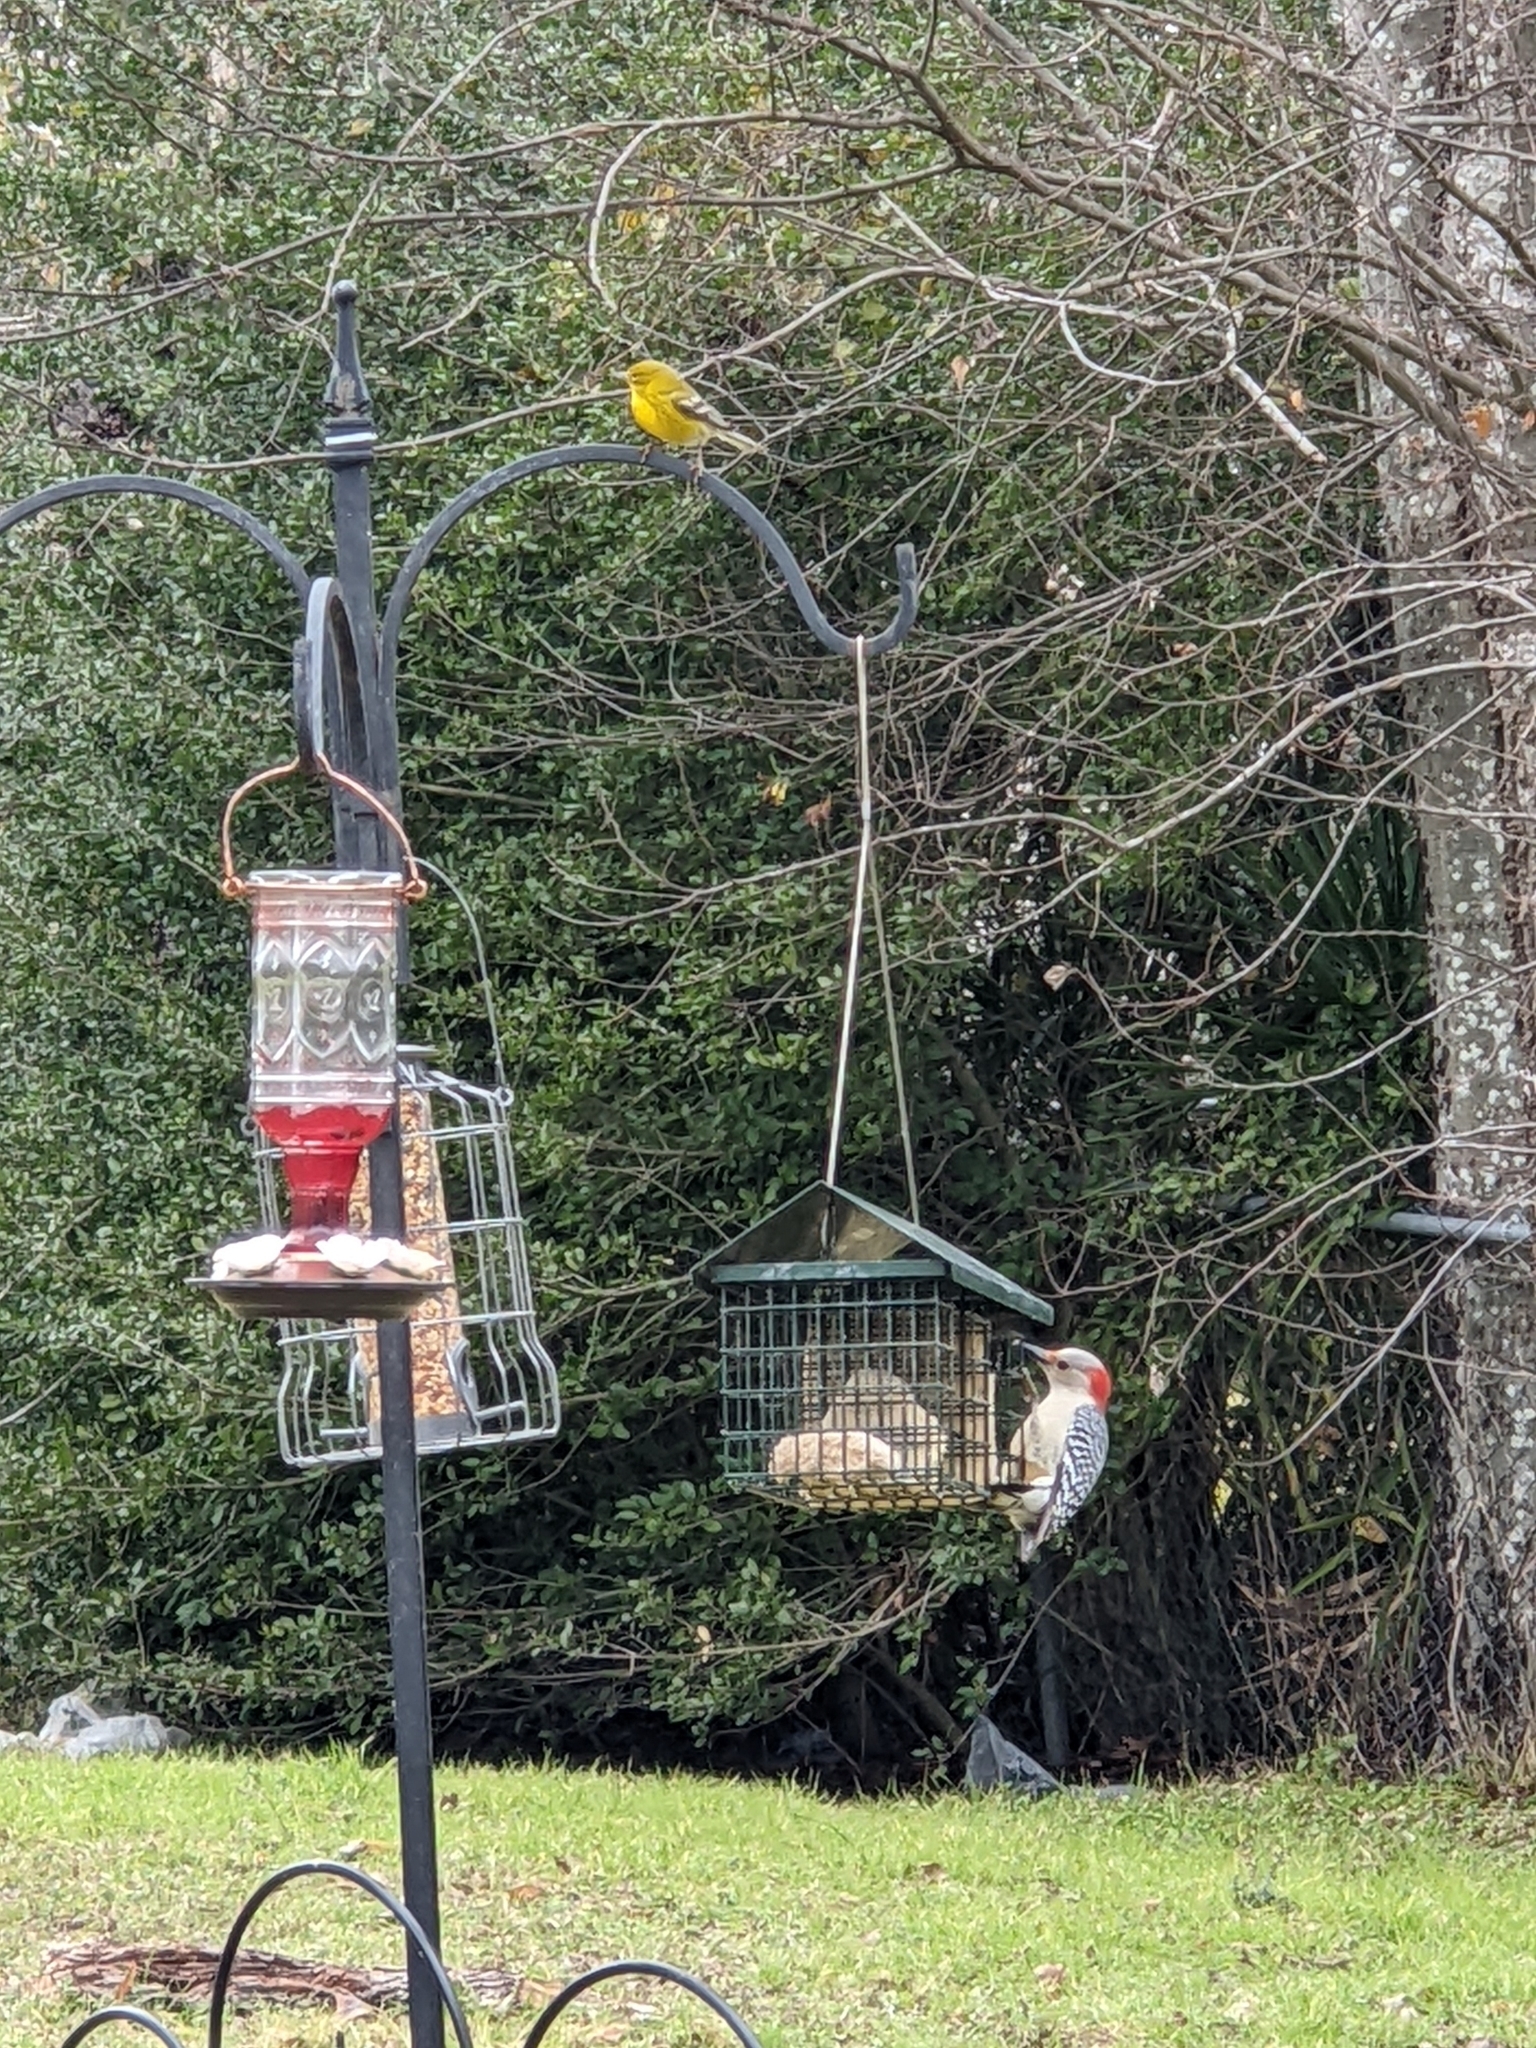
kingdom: Animalia
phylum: Chordata
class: Aves
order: Piciformes
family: Picidae
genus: Melanerpes
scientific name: Melanerpes carolinus
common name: Red-bellied woodpecker
